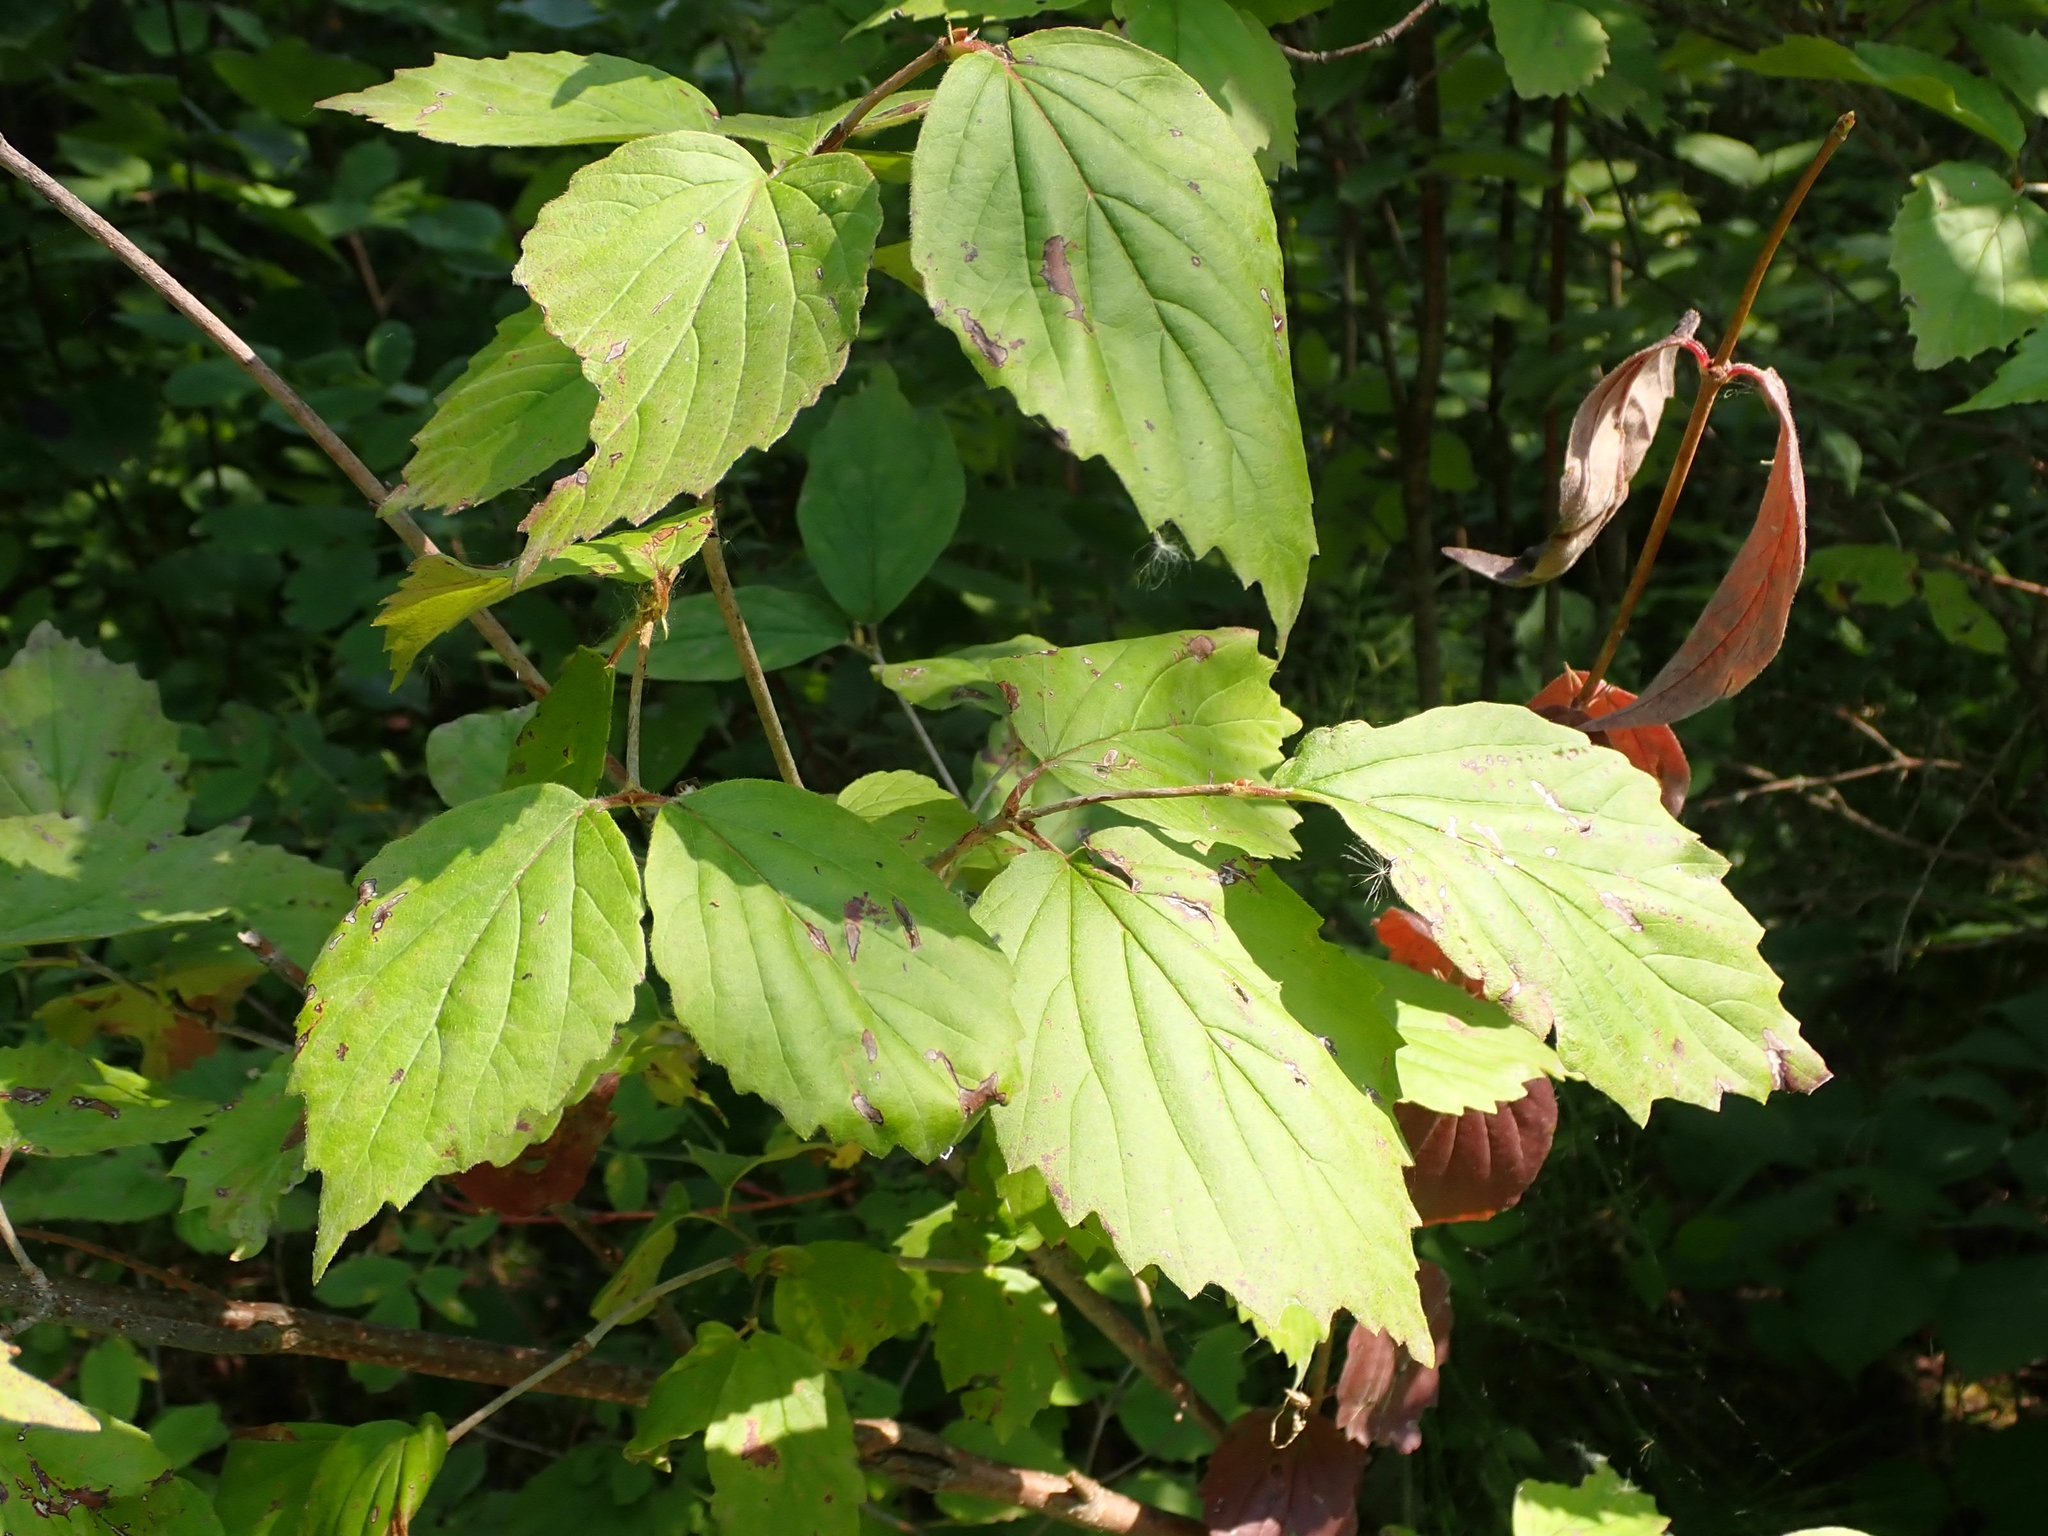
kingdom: Plantae
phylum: Tracheophyta
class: Magnoliopsida
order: Dipsacales
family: Viburnaceae
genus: Viburnum
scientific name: Viburnum rafinesqueanum
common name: Downy arrow-wood
